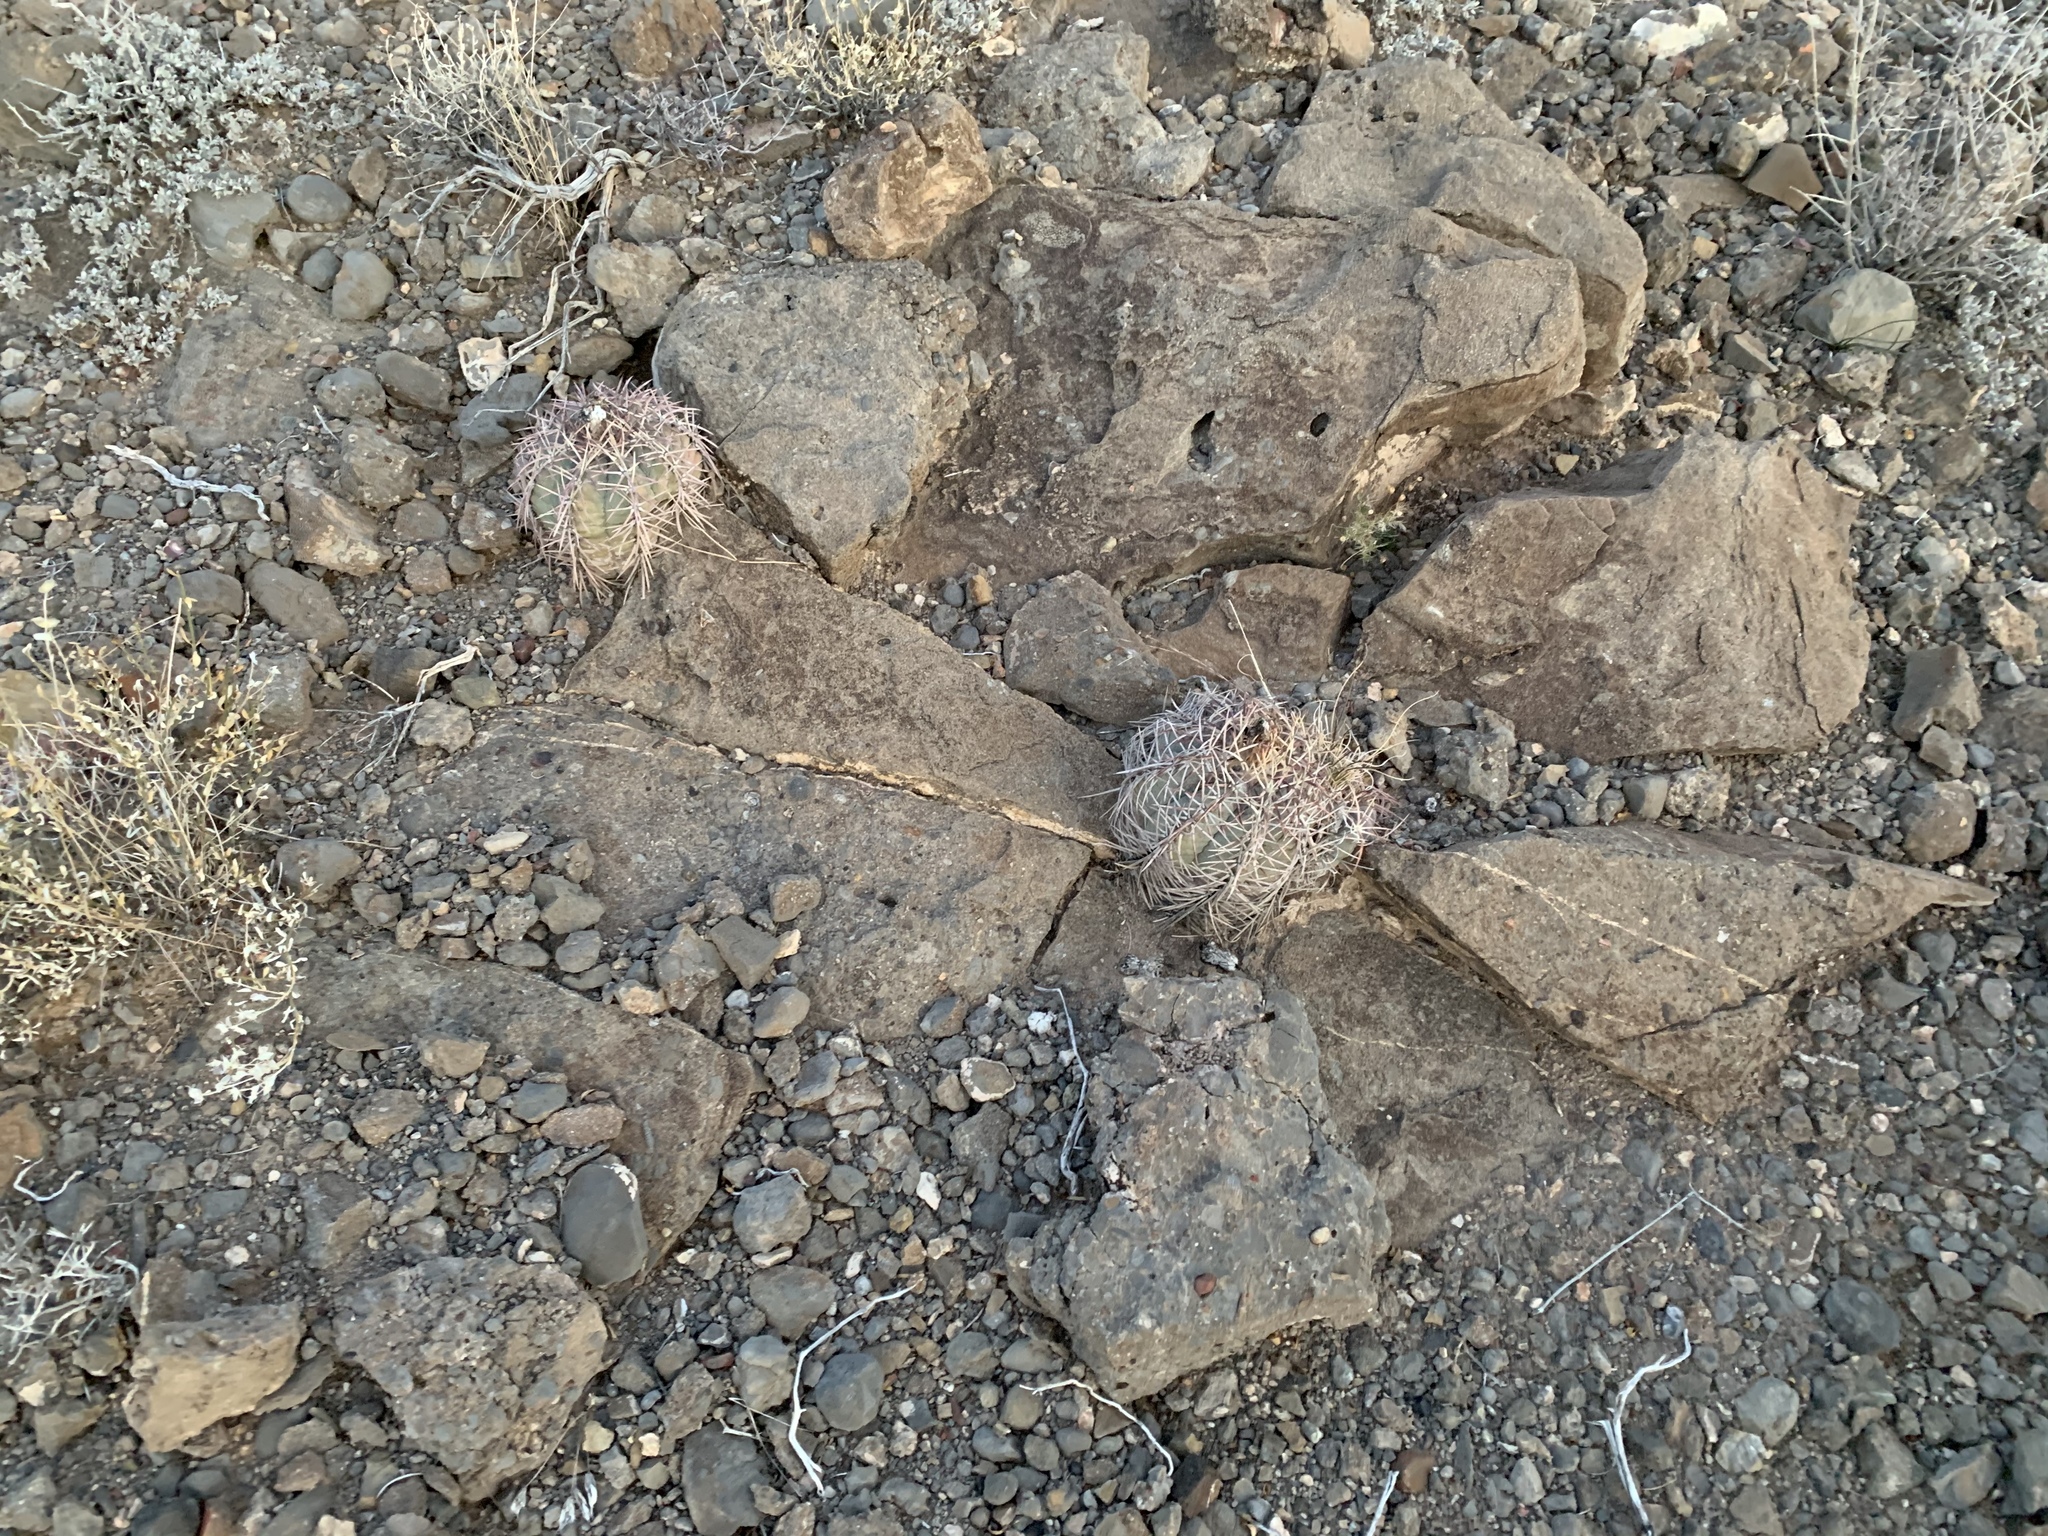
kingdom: Plantae
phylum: Tracheophyta
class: Magnoliopsida
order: Caryophyllales
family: Cactaceae
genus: Echinocactus
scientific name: Echinocactus horizonthalonius
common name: Devilshead
